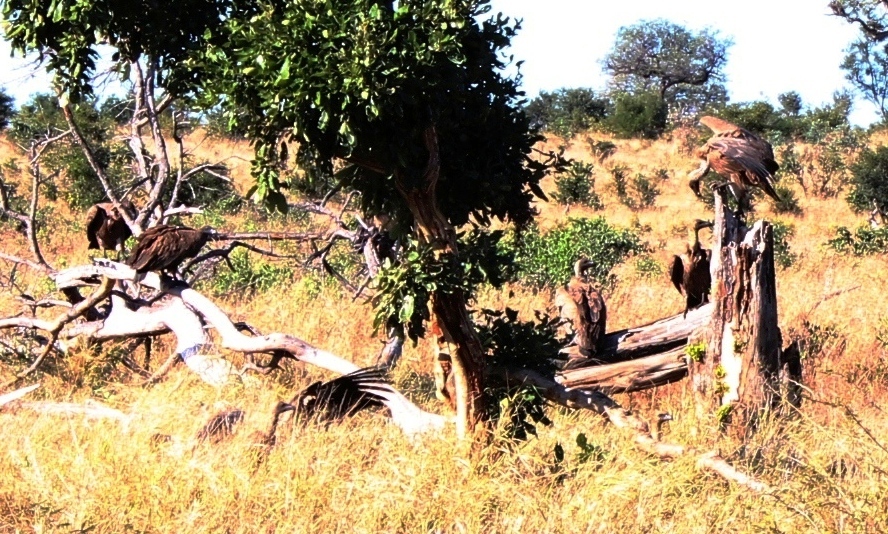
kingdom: Animalia
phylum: Chordata
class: Aves
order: Accipitriformes
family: Accipitridae
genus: Gyps
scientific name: Gyps africanus
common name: White-backed vulture
